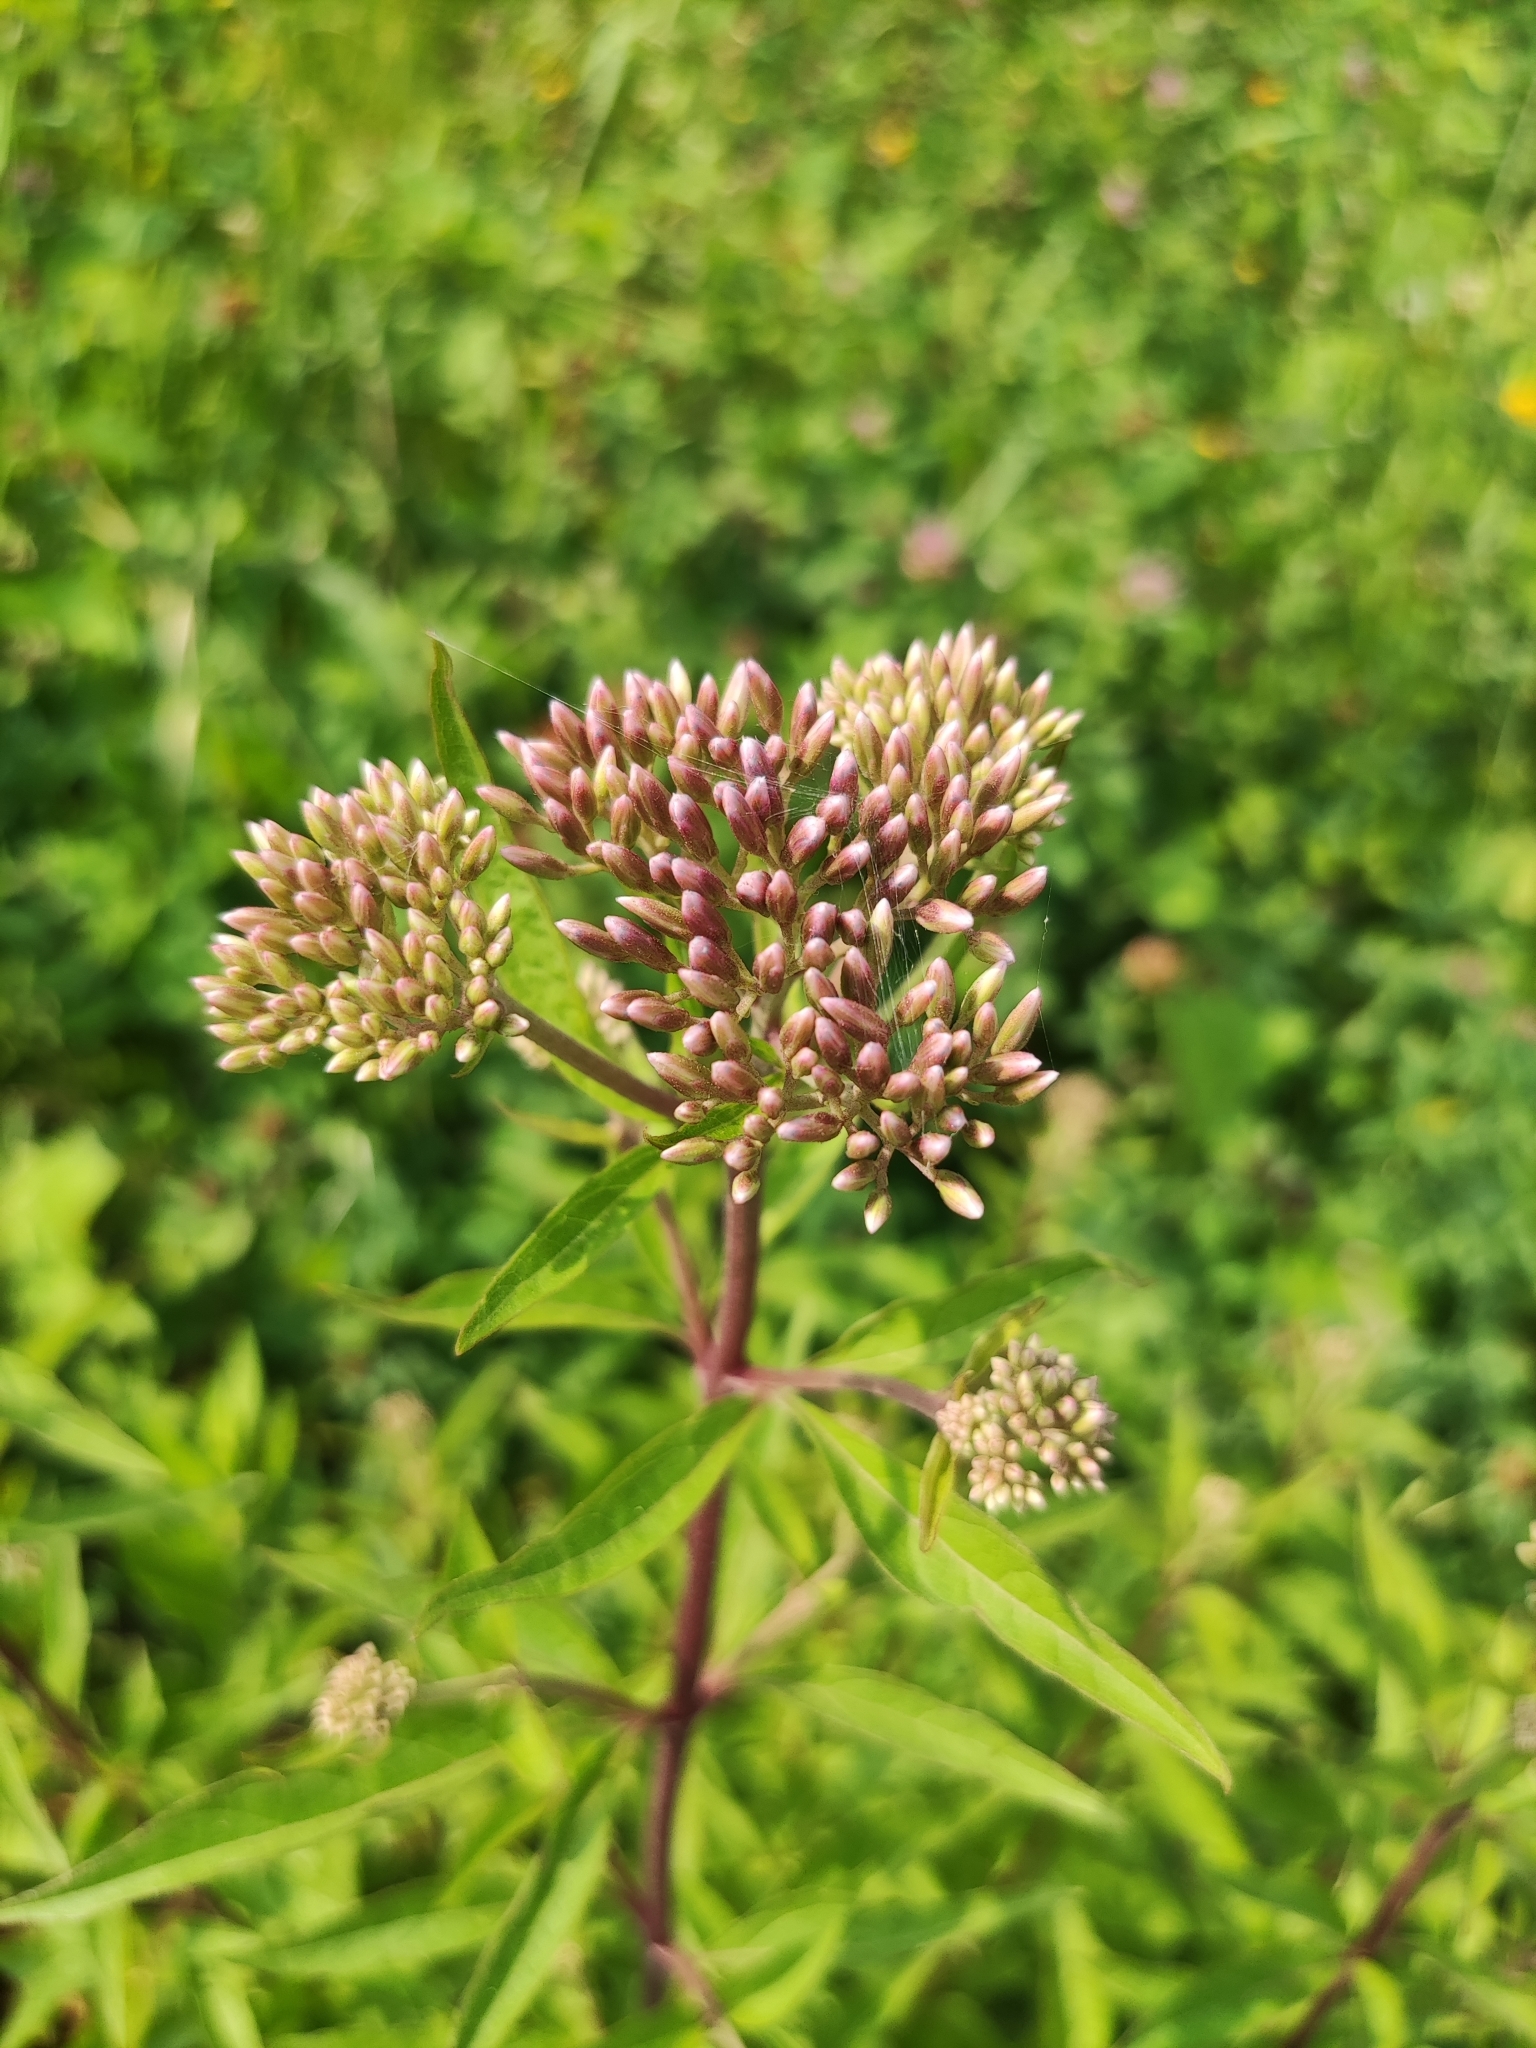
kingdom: Plantae
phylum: Tracheophyta
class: Magnoliopsida
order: Asterales
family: Asteraceae
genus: Eupatorium
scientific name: Eupatorium cannabinum
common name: Hemp-agrimony
